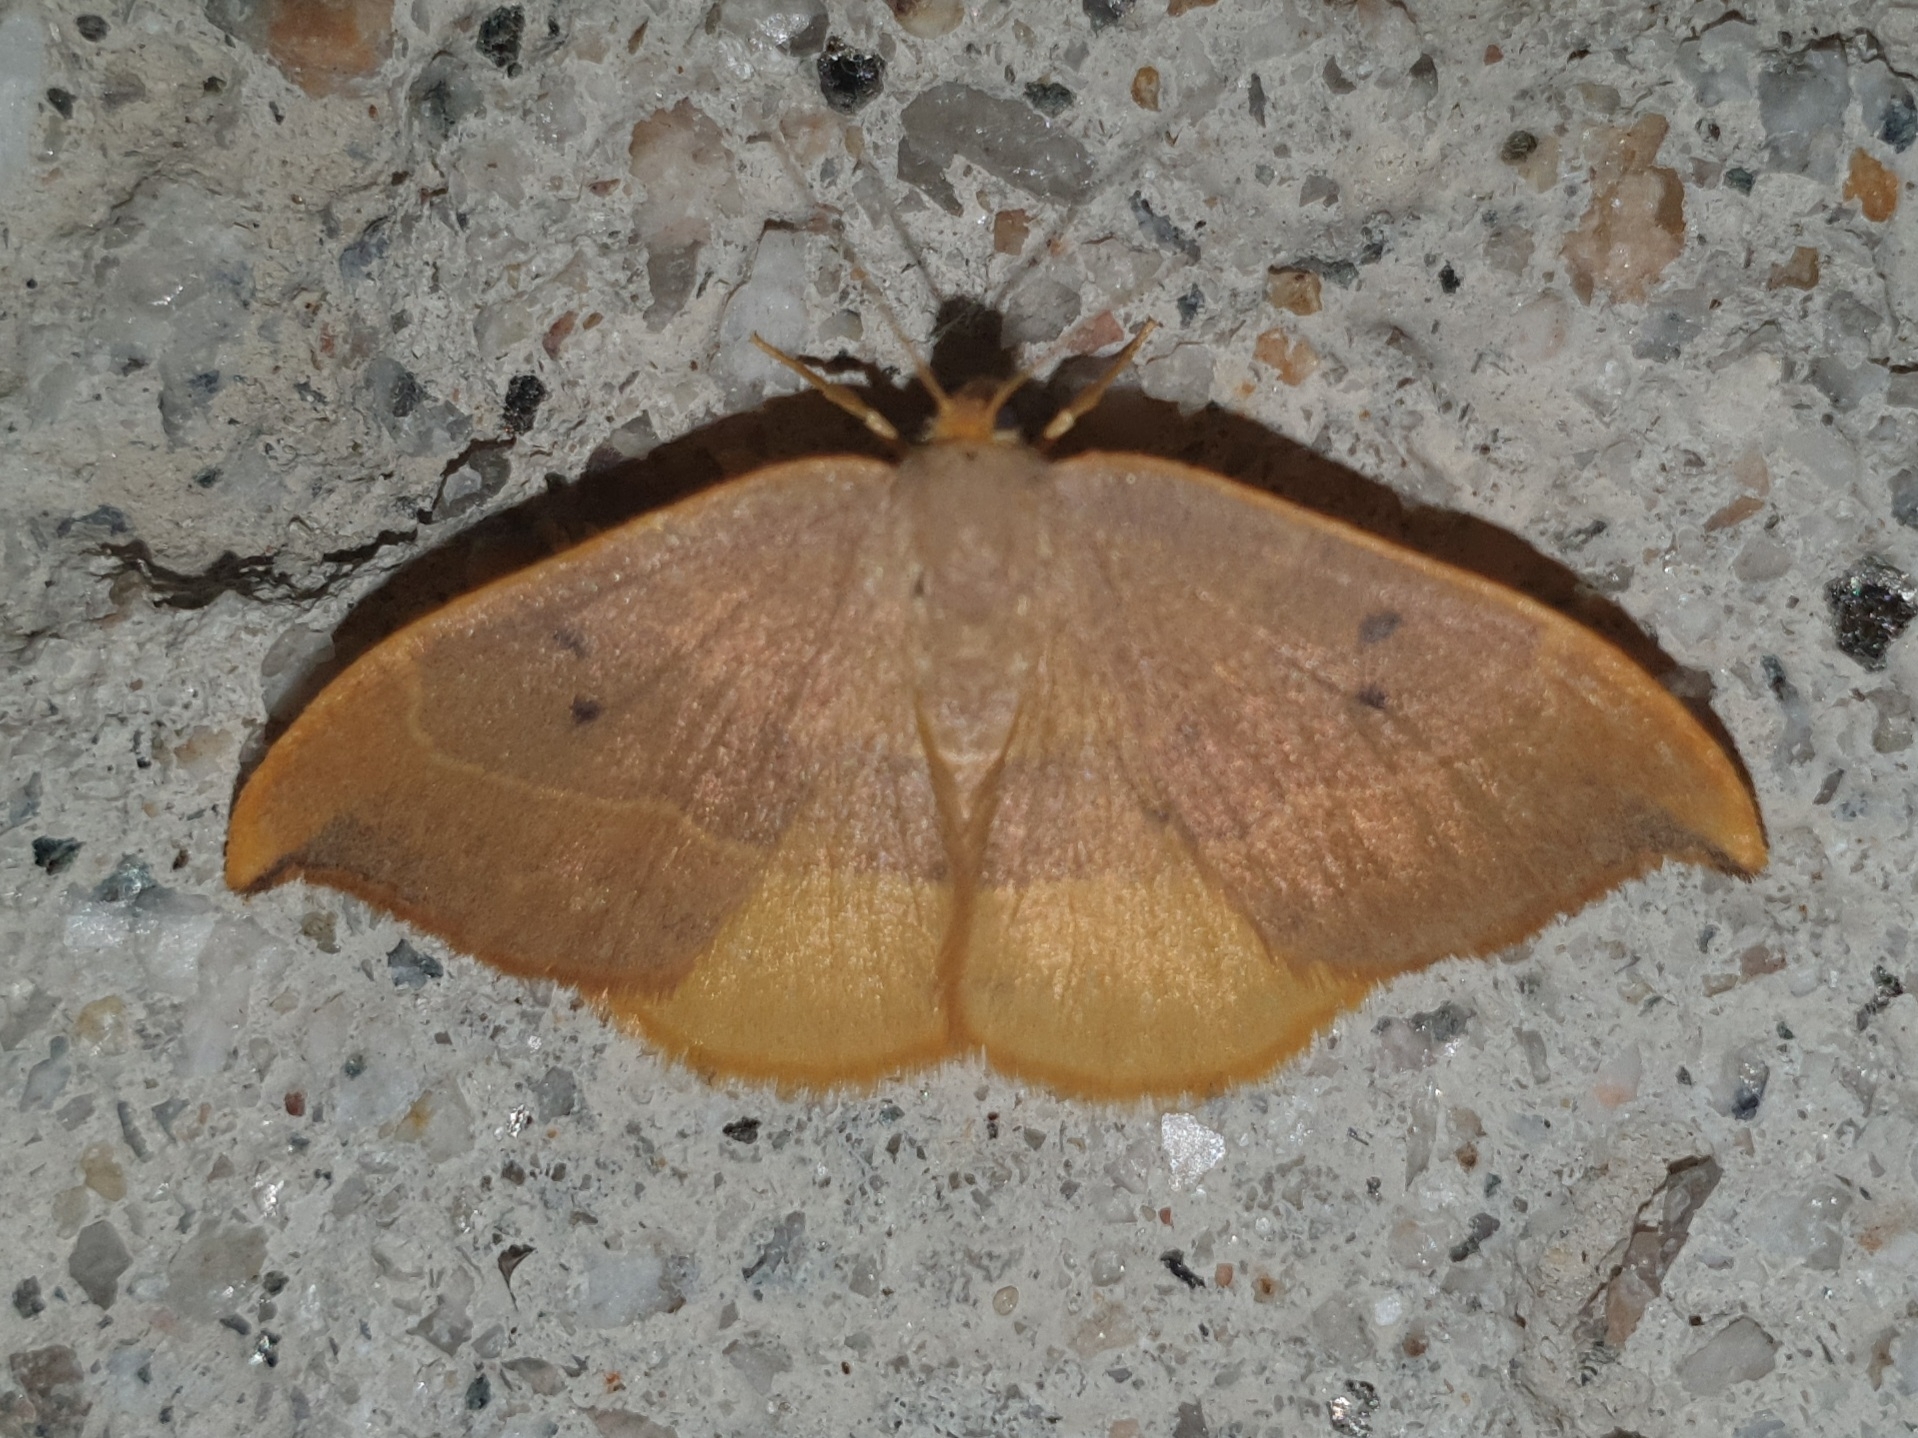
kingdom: Animalia
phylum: Arthropoda
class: Insecta
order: Lepidoptera
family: Drepanidae
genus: Watsonalla
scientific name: Watsonalla binaria
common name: Oak hook-tip
